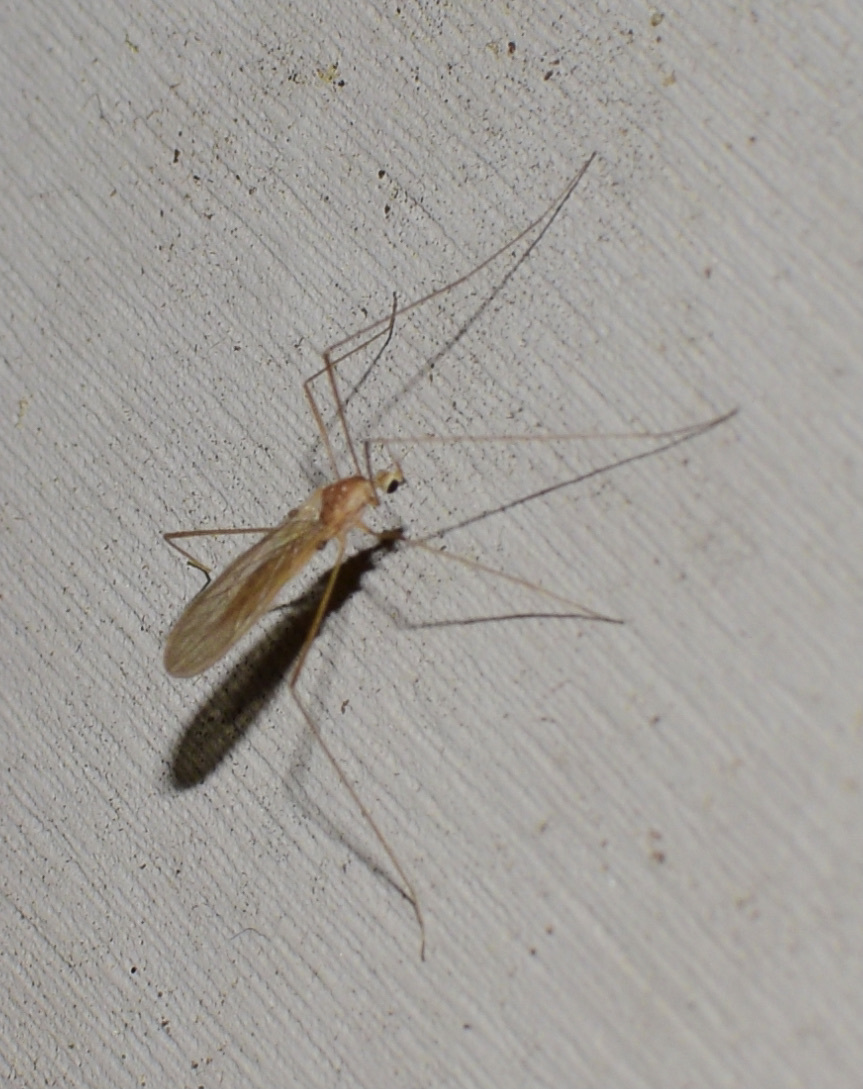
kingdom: Animalia
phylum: Arthropoda
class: Insecta
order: Diptera
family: Limoniidae
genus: Erioptera
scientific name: Erioptera septemtrionis
